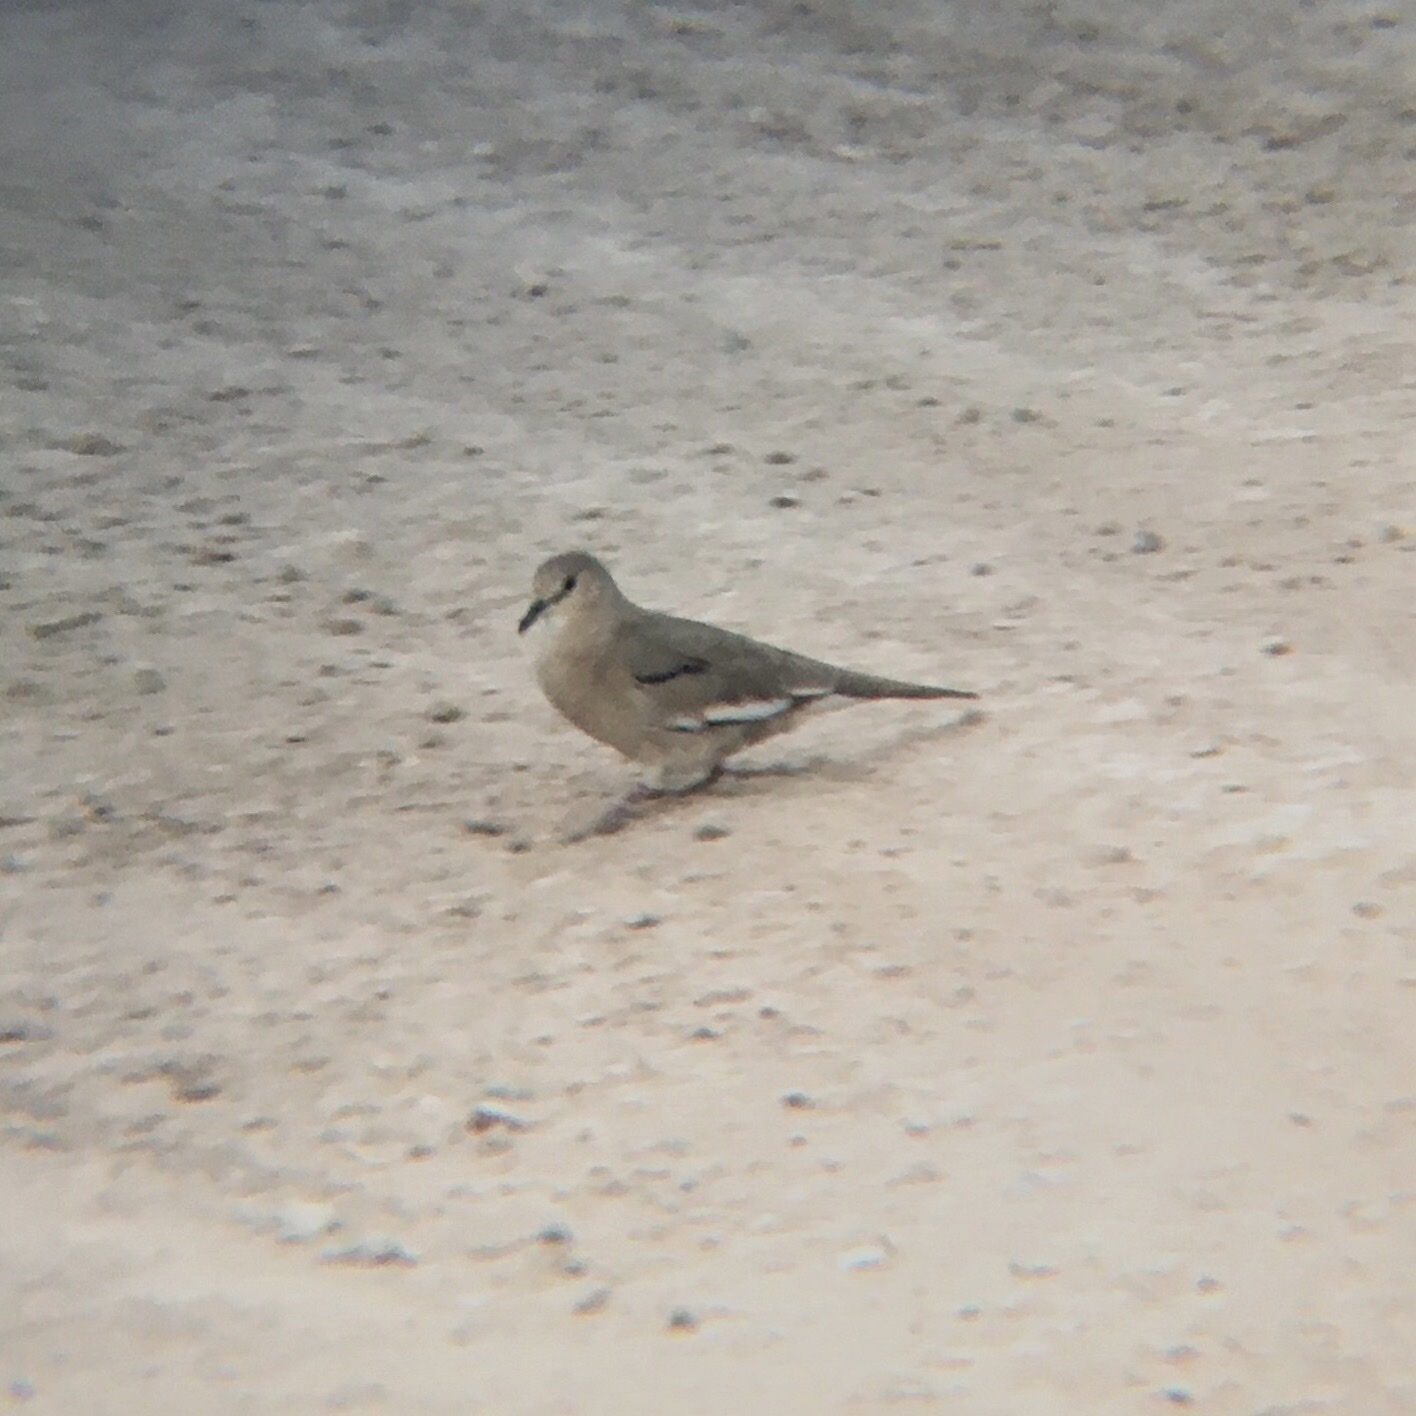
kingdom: Animalia
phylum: Chordata
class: Aves
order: Columbiformes
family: Columbidae
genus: Columbina
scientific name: Columbina picui
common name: Picui ground dove
